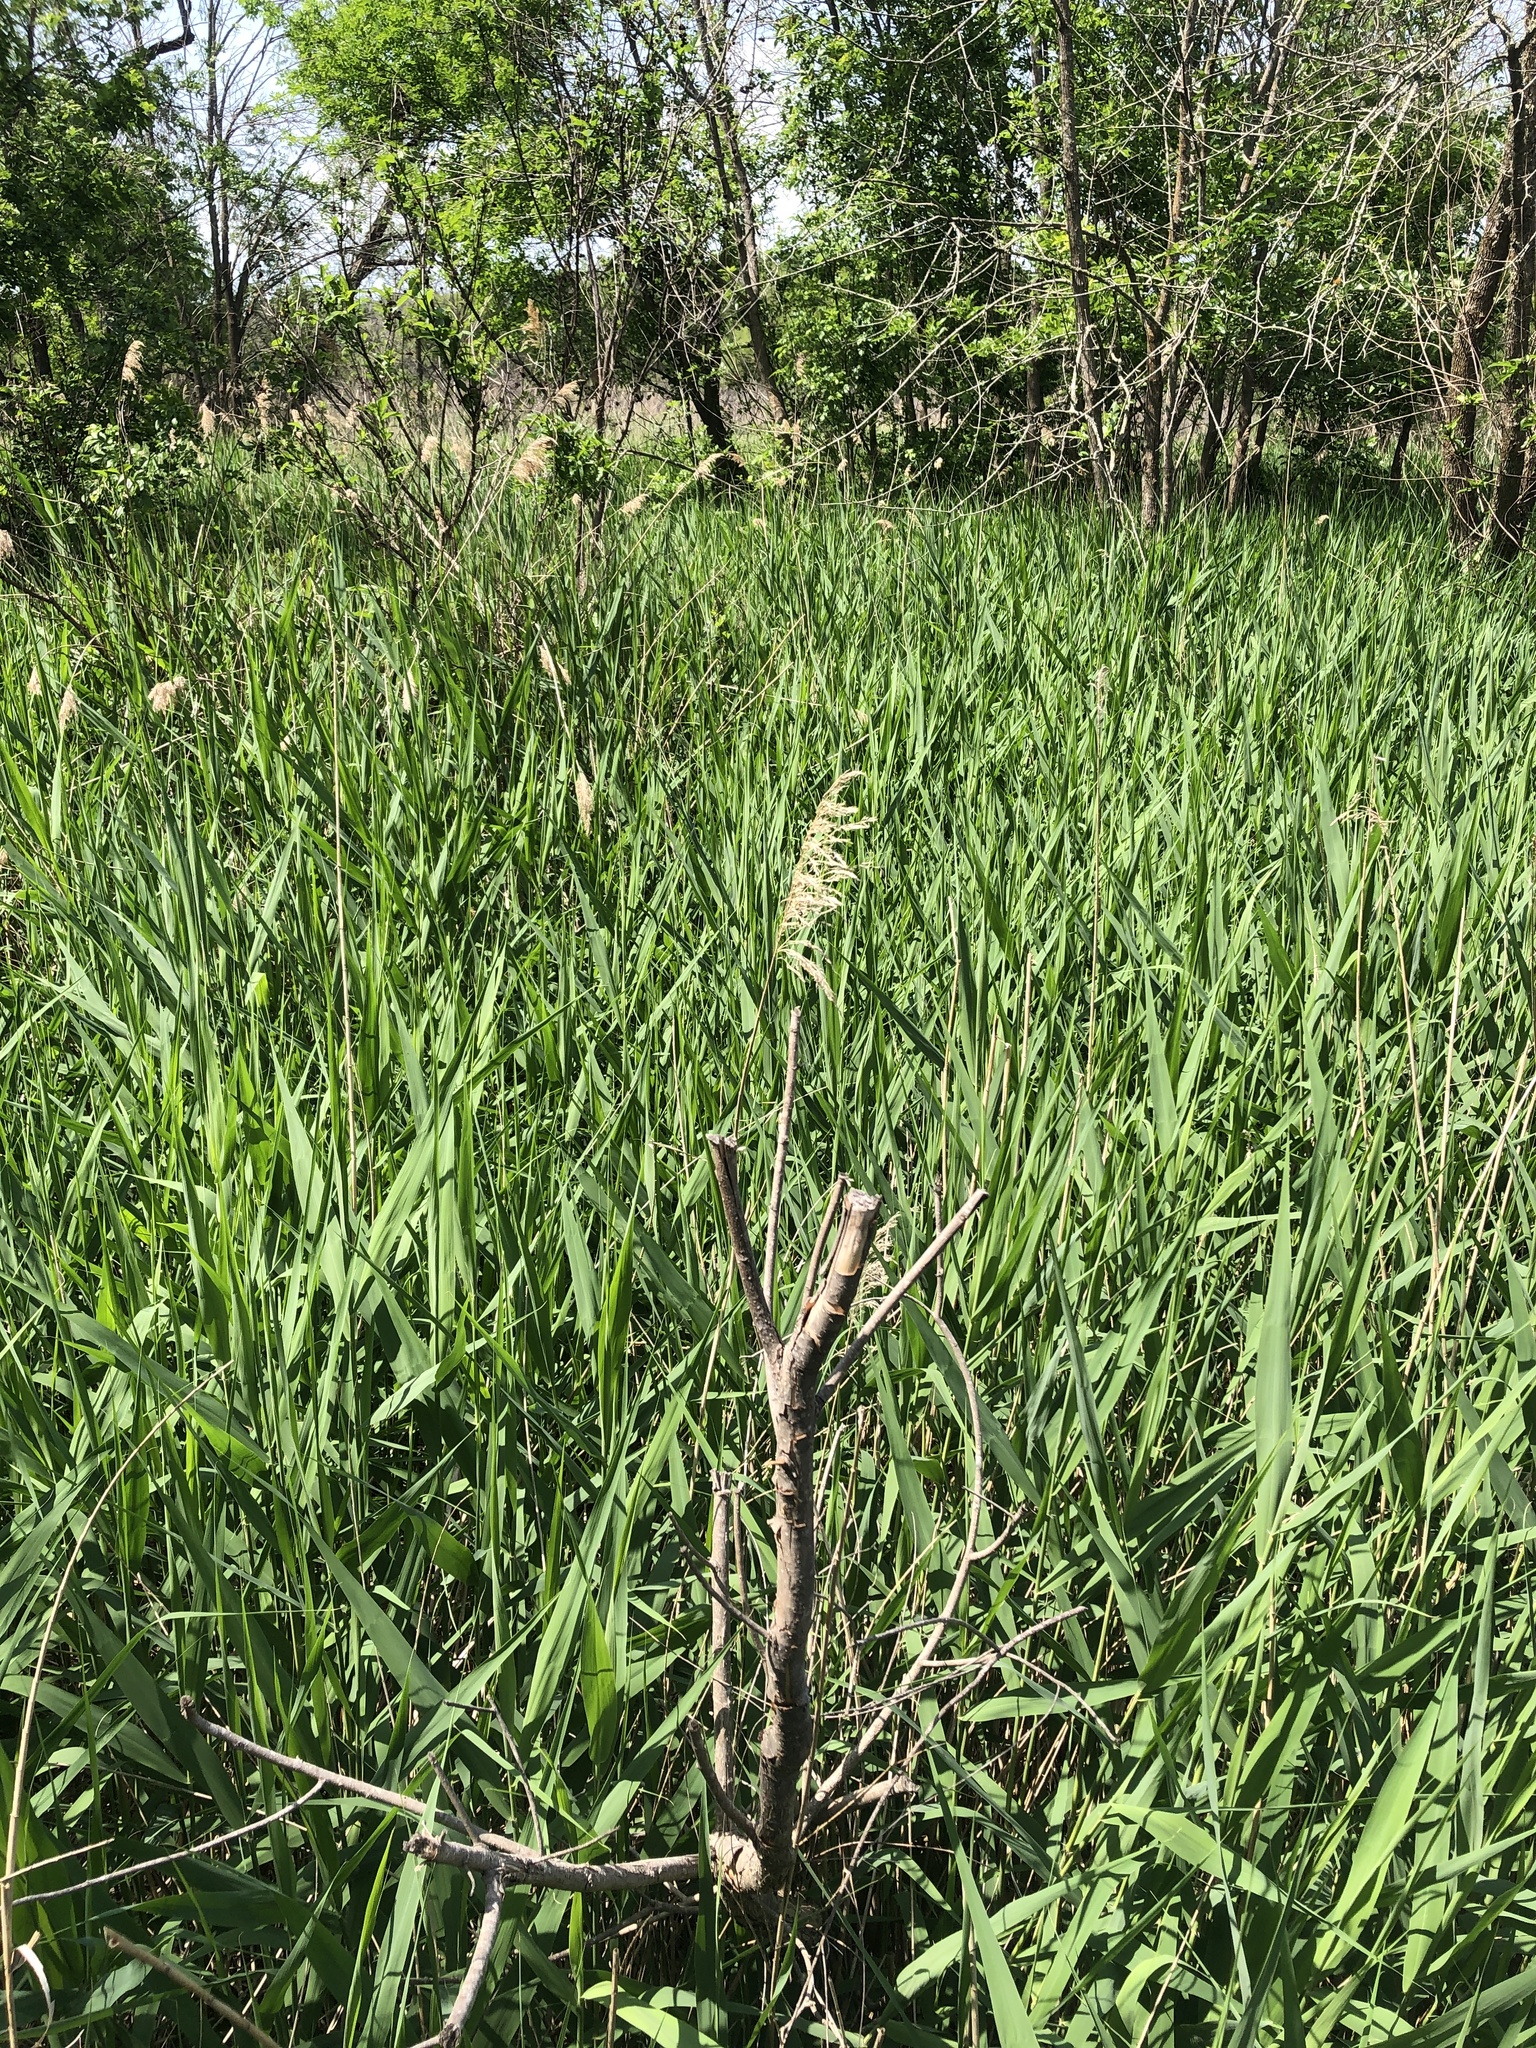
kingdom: Plantae
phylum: Tracheophyta
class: Liliopsida
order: Poales
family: Poaceae
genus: Phragmites
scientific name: Phragmites australis
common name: Common reed
